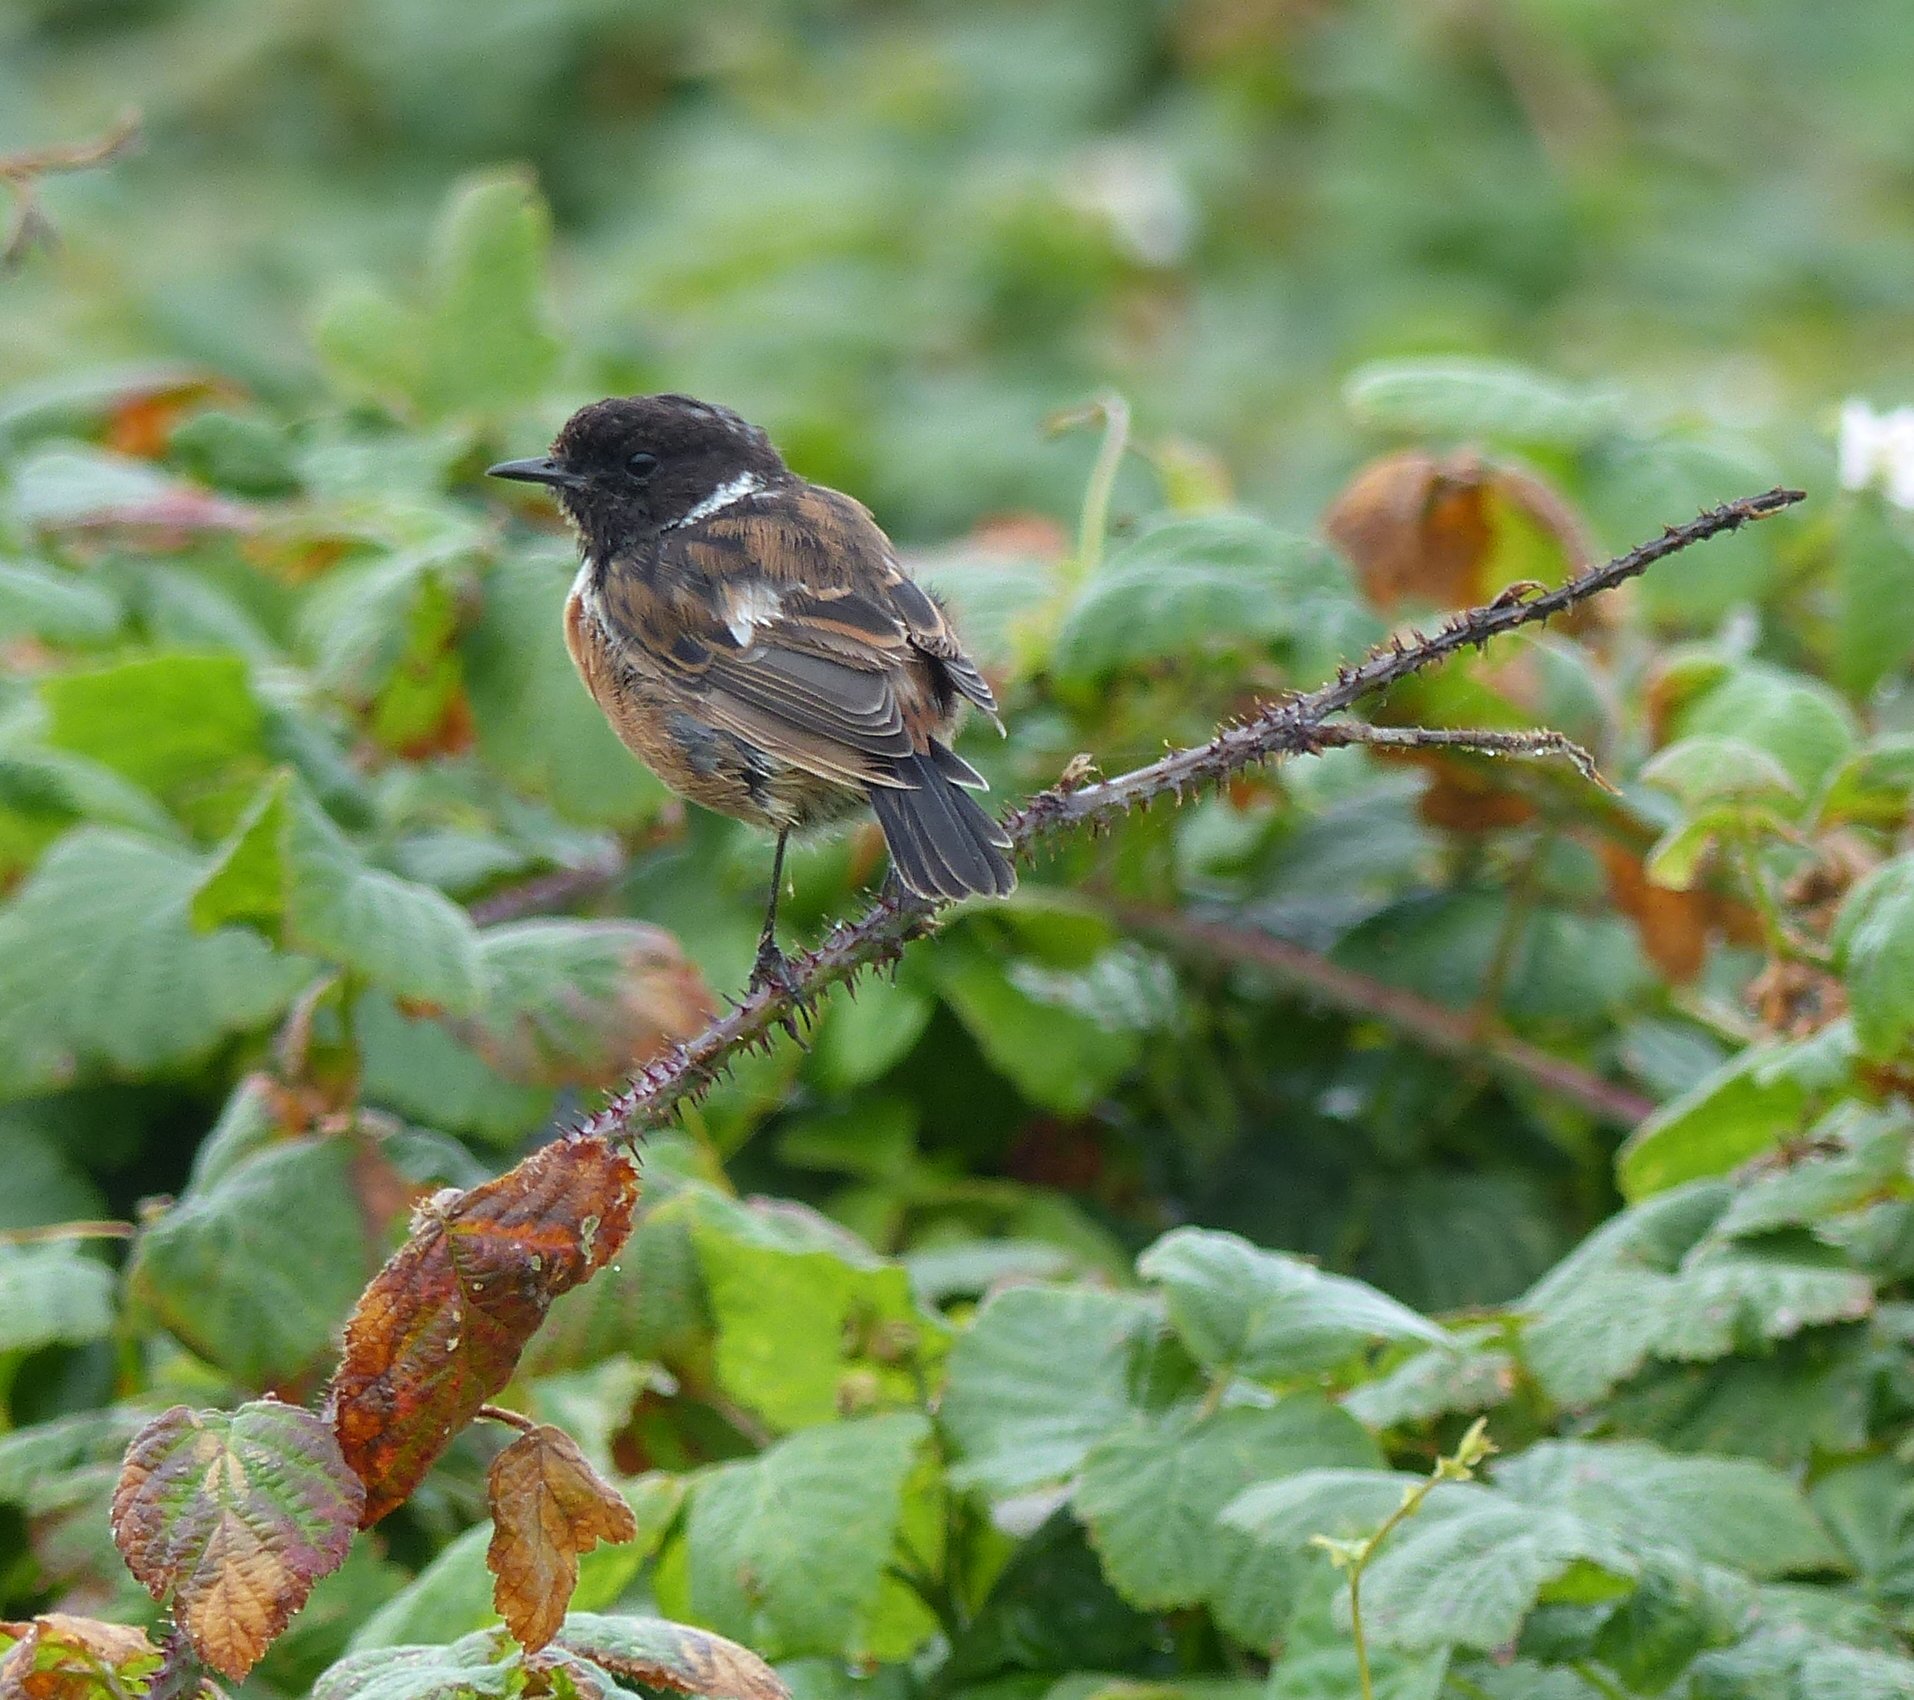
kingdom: Animalia
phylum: Chordata
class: Aves
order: Passeriformes
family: Muscicapidae
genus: Saxicola
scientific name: Saxicola rubicola
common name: European stonechat
